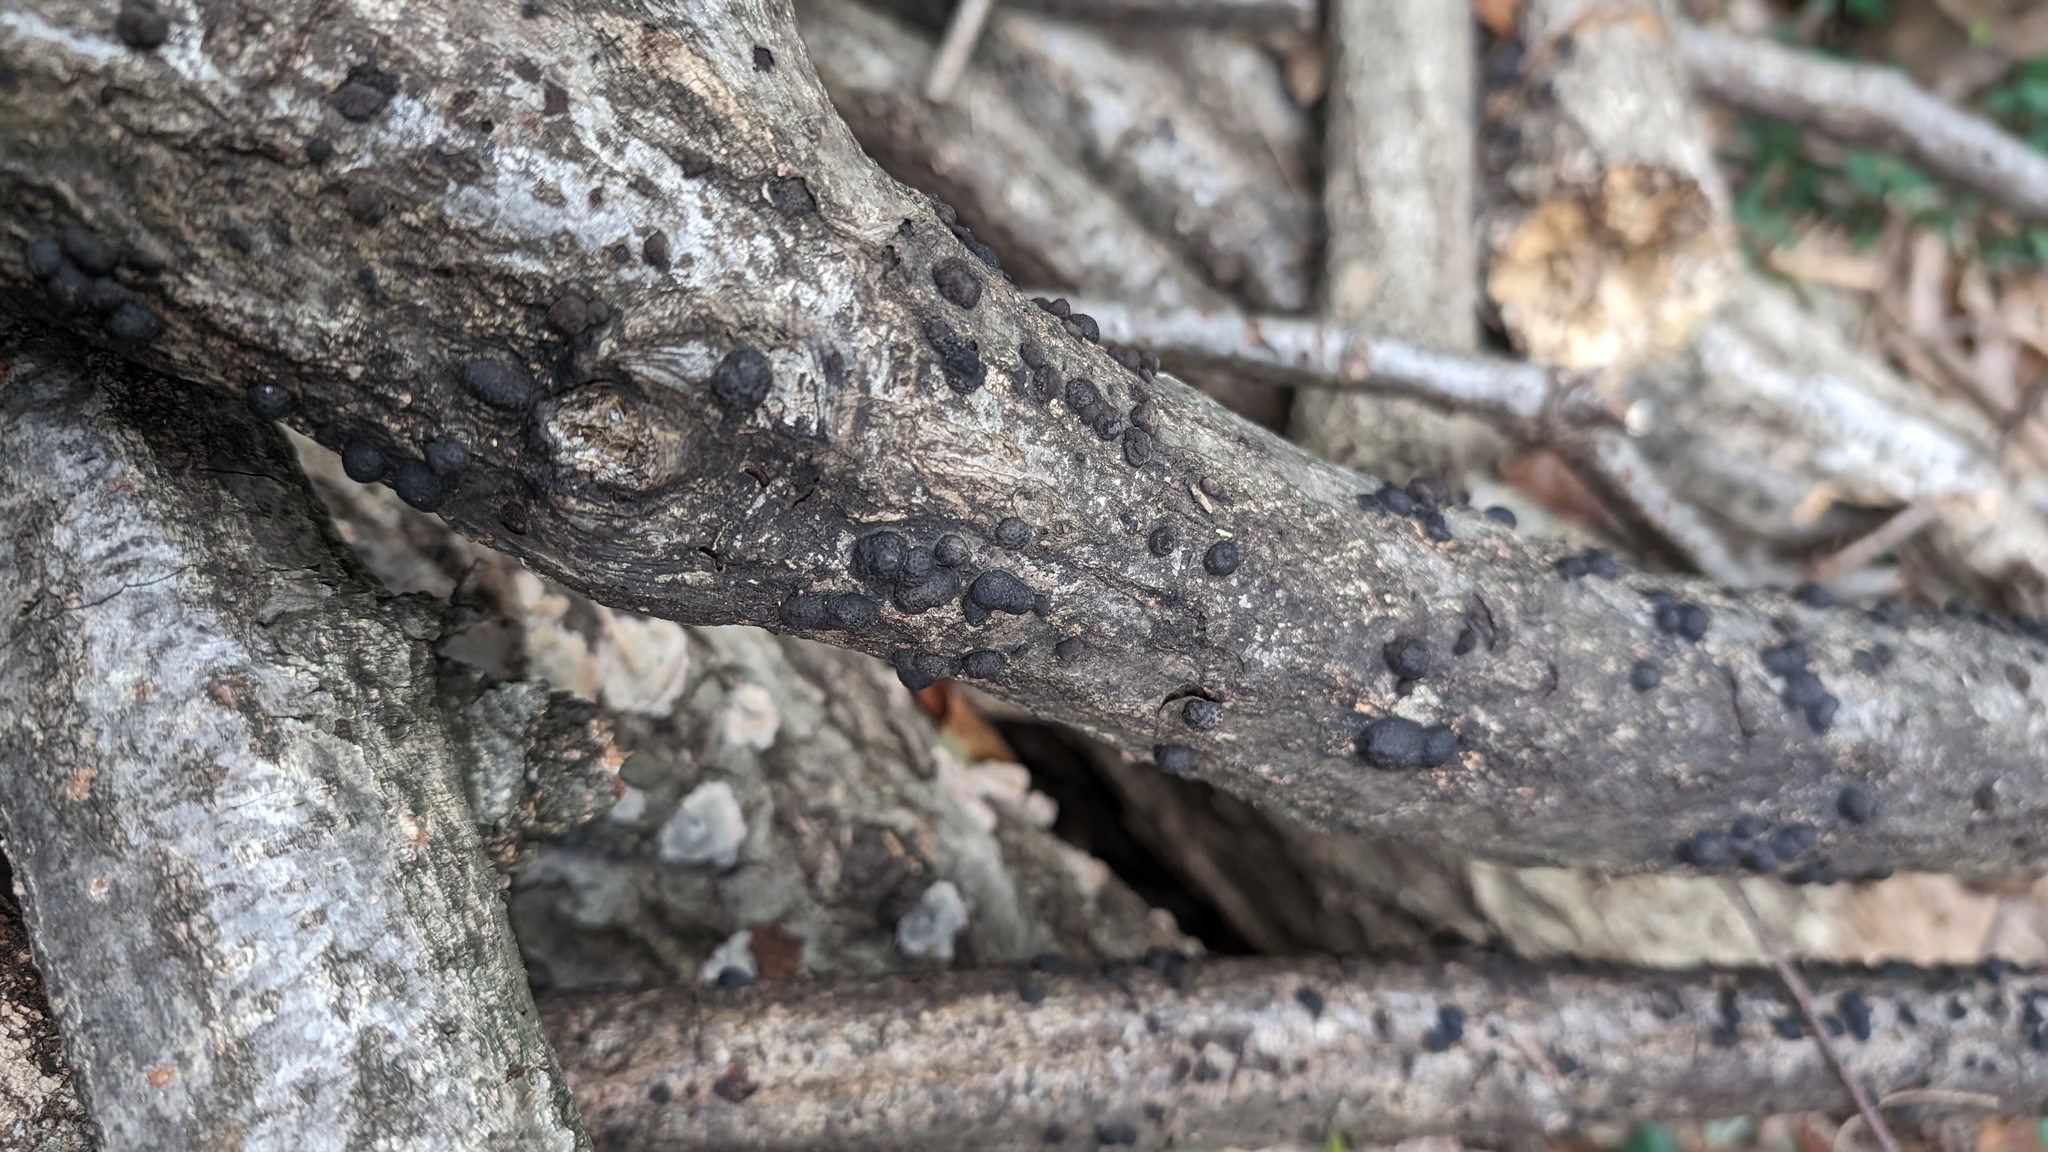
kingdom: Fungi
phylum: Ascomycota
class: Sordariomycetes
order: Xylariales
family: Hypoxylaceae
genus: Annulohypoxylon
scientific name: Annulohypoxylon truncatum
